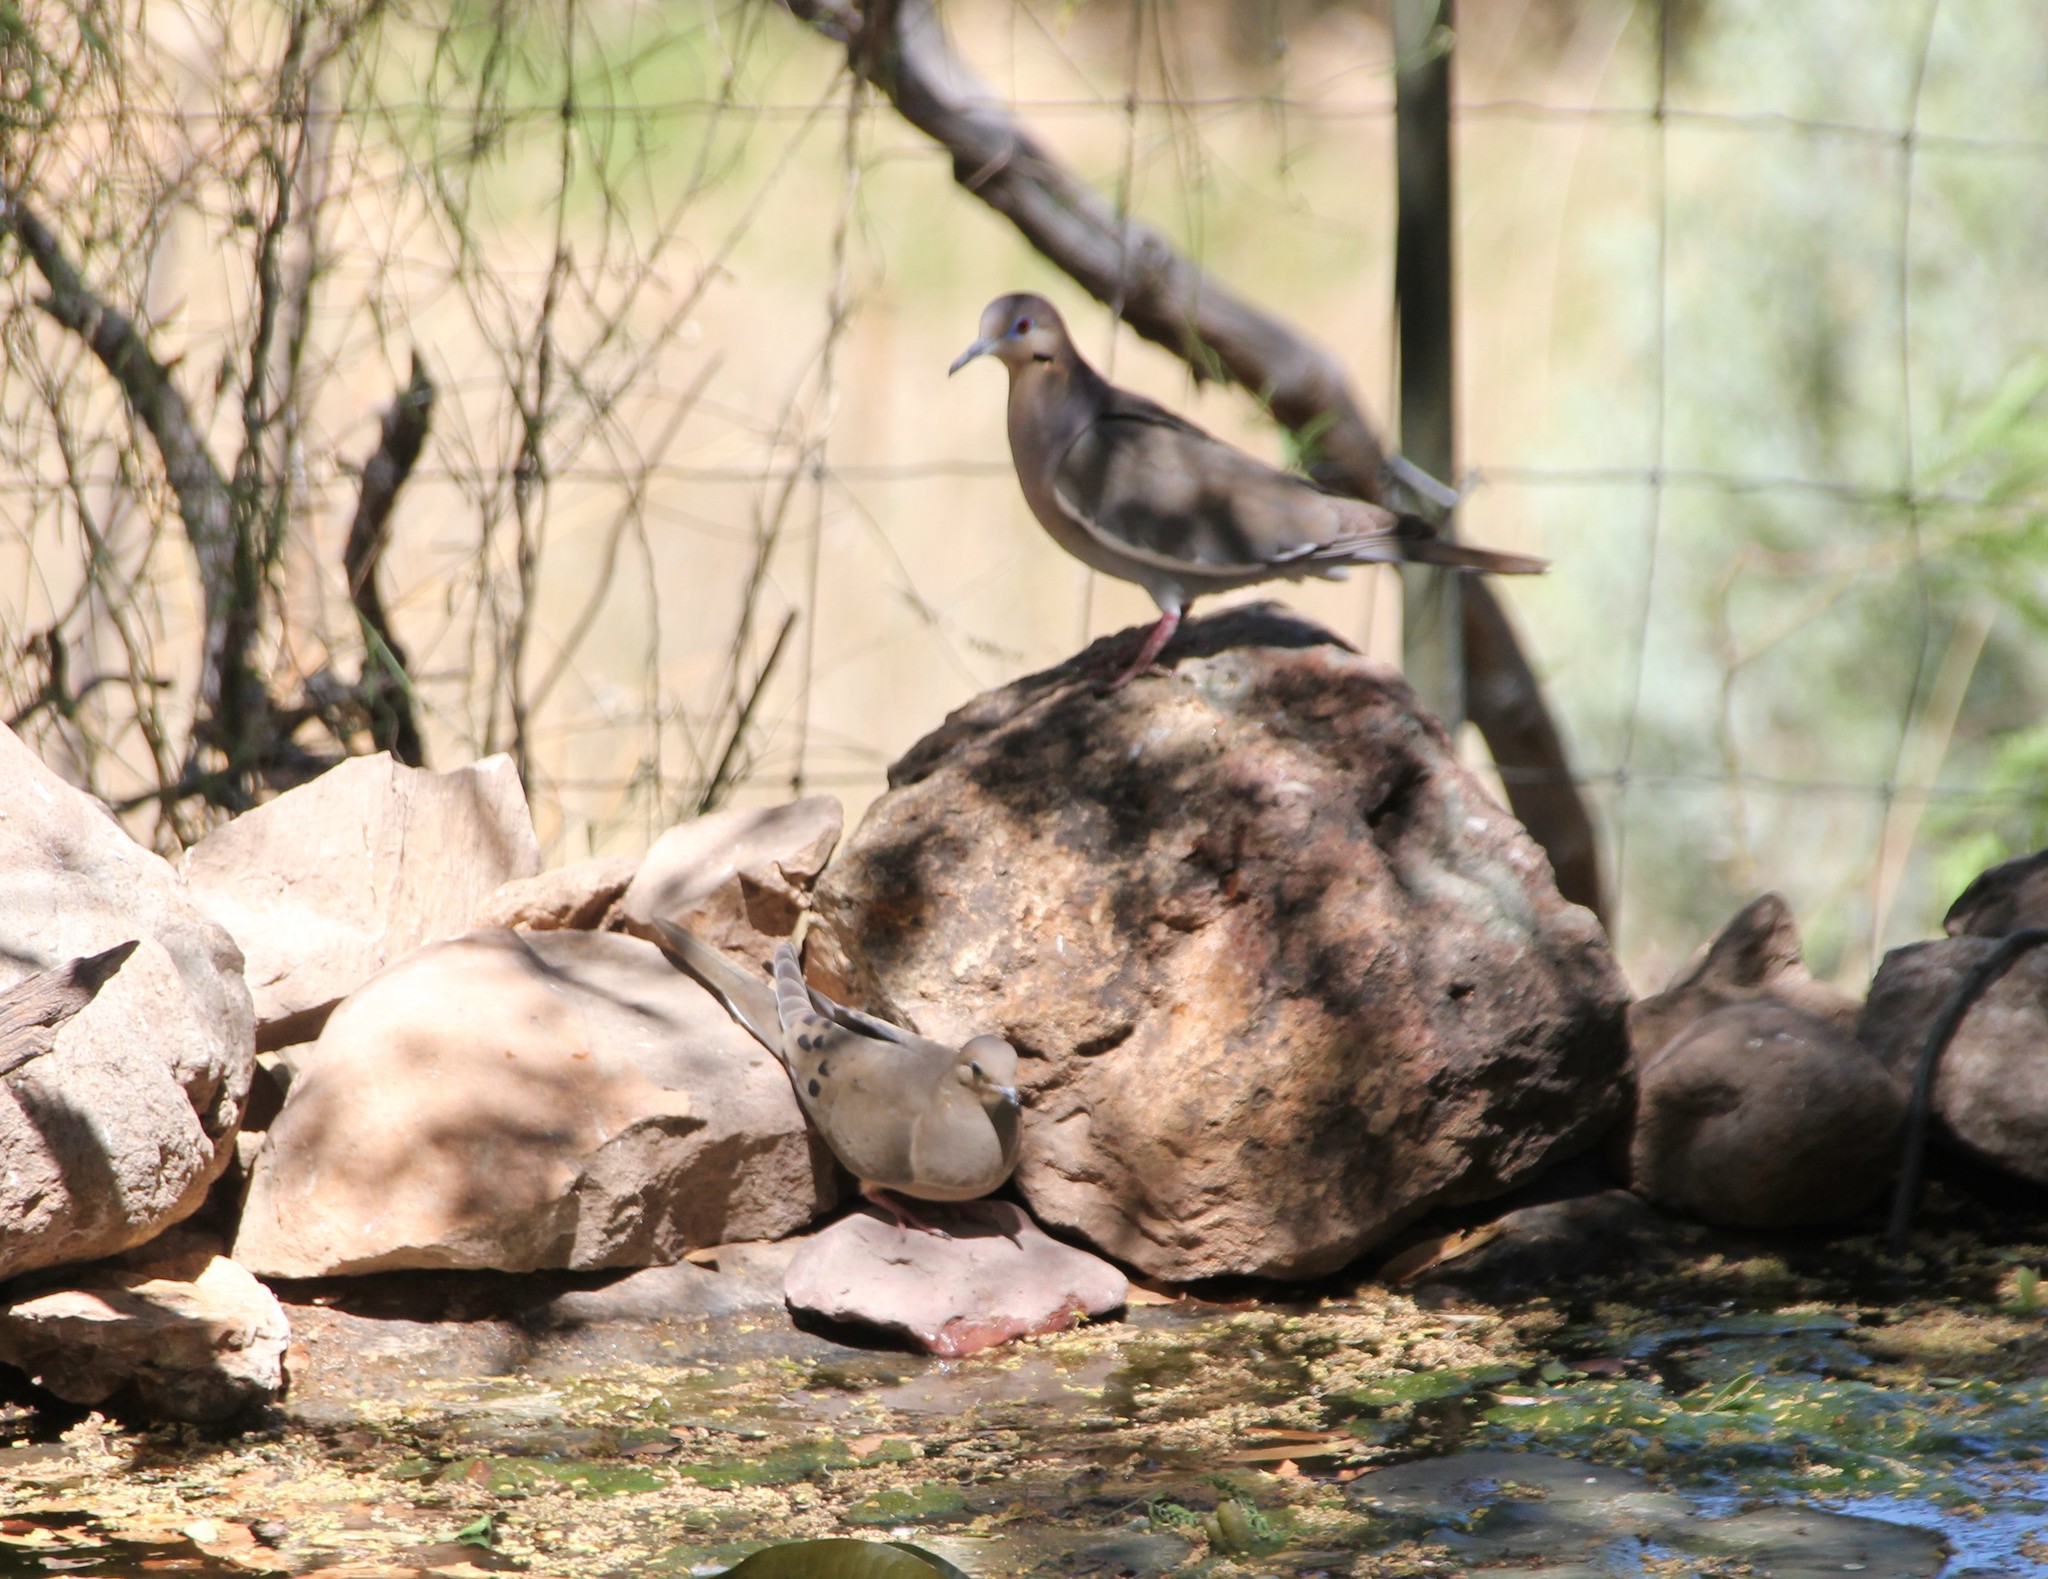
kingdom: Animalia
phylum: Chordata
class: Aves
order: Columbiformes
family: Columbidae
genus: Zenaida
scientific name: Zenaida macroura
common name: Mourning dove
